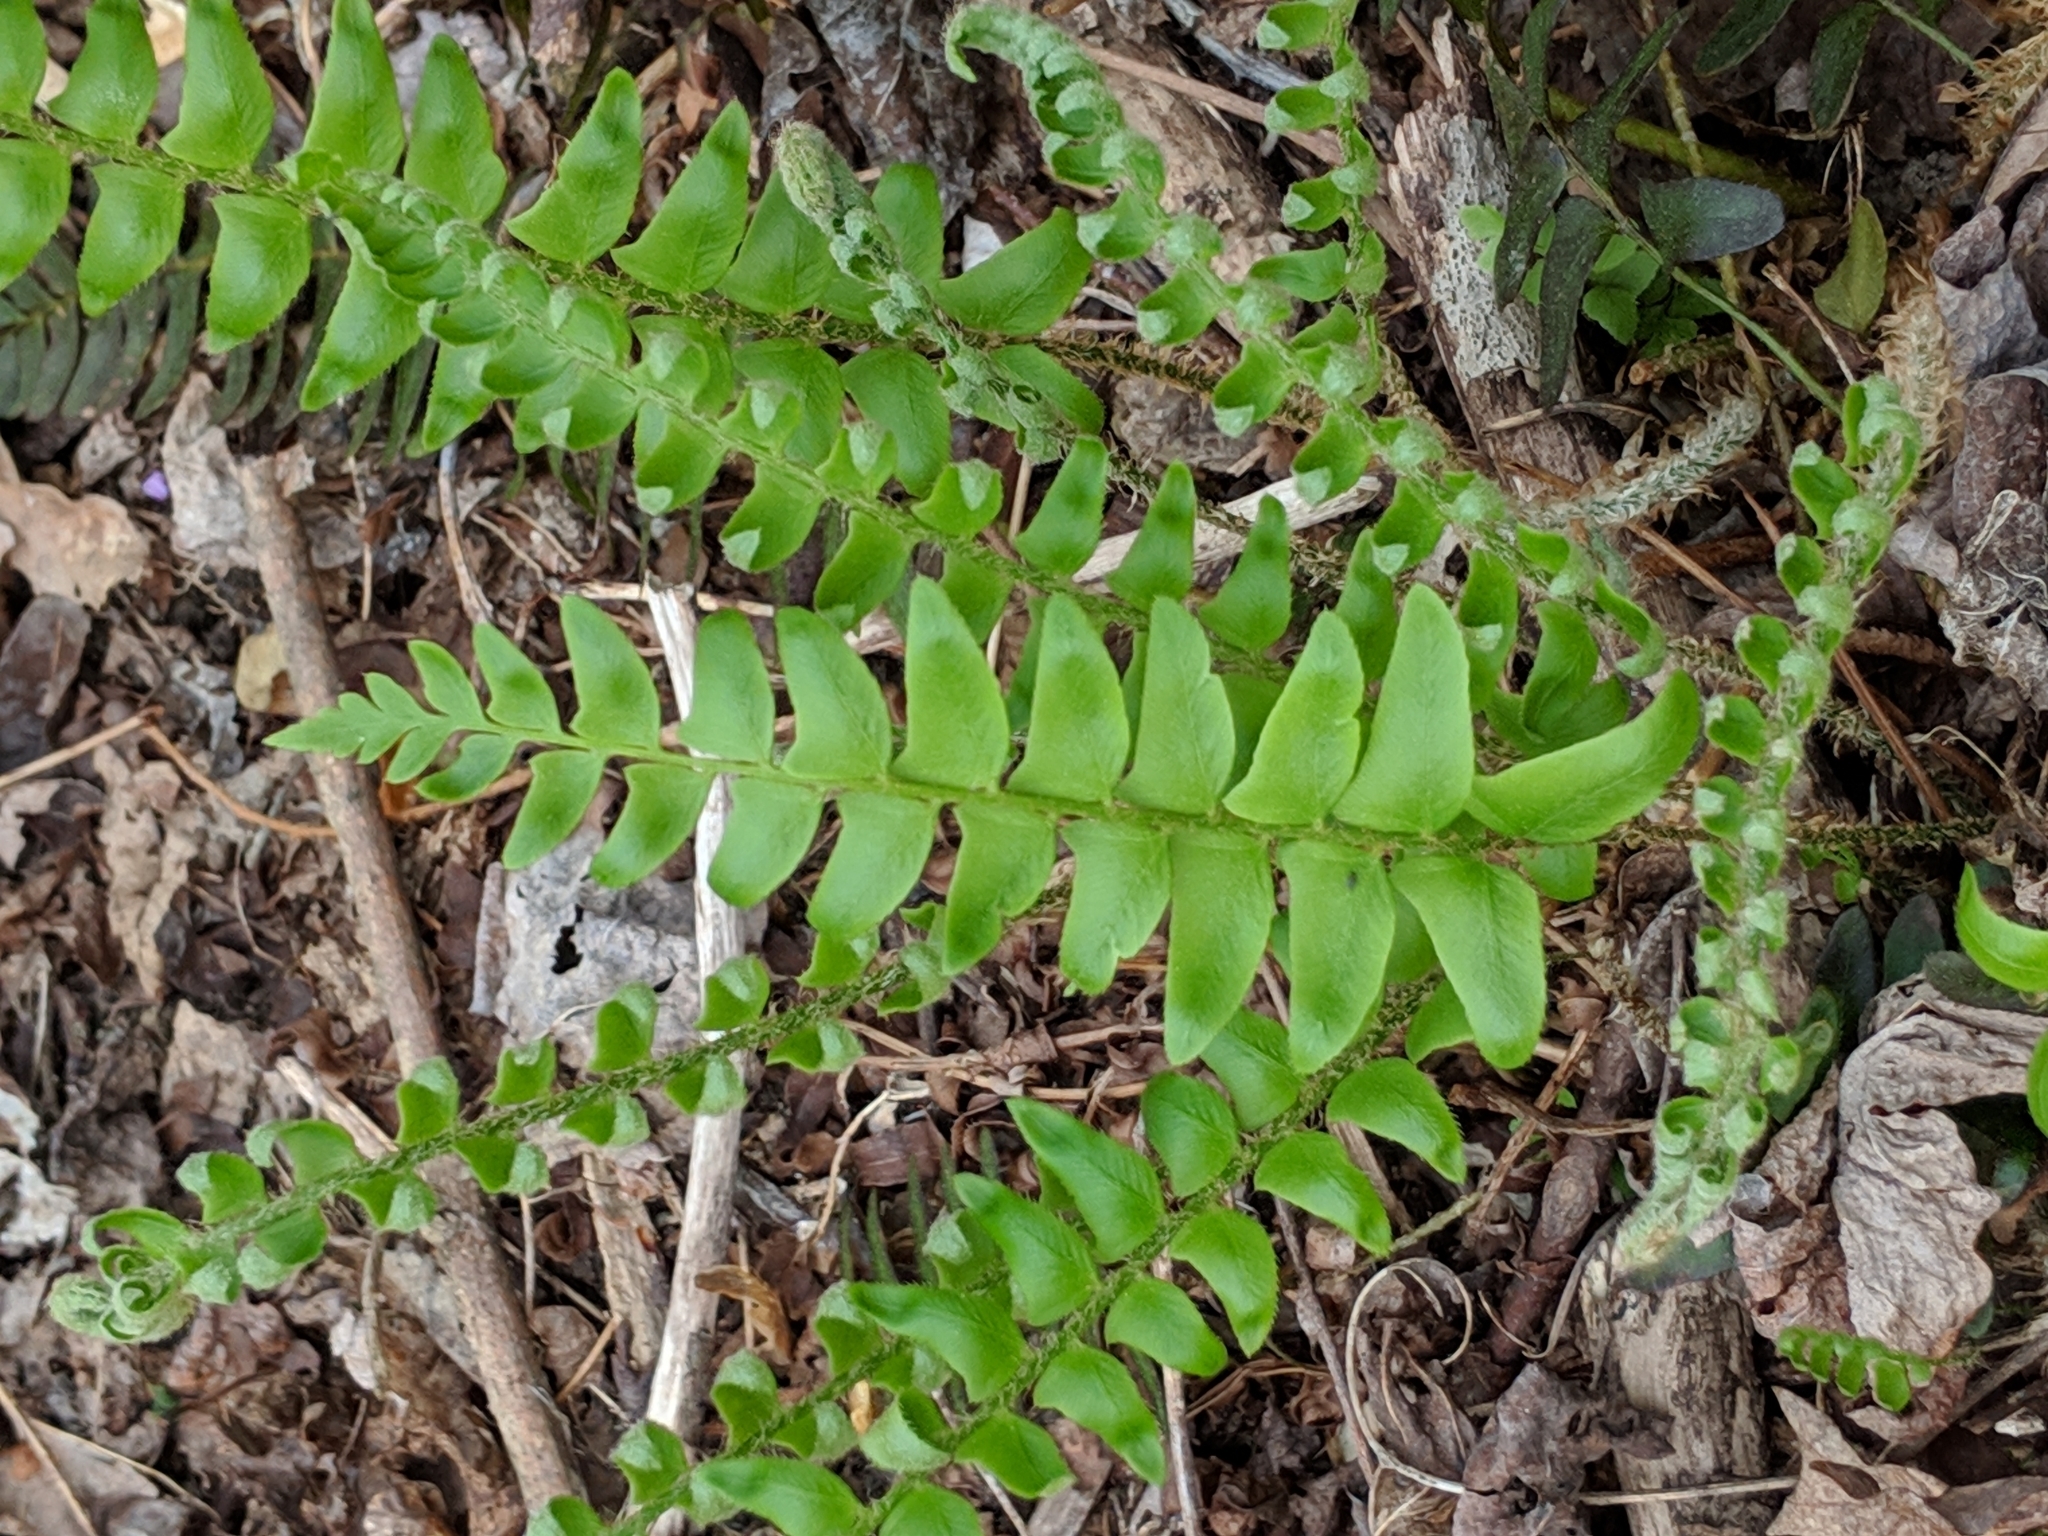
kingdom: Plantae
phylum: Tracheophyta
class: Polypodiopsida
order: Polypodiales
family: Dryopteridaceae
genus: Polystichum
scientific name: Polystichum acrostichoides
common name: Christmas fern
